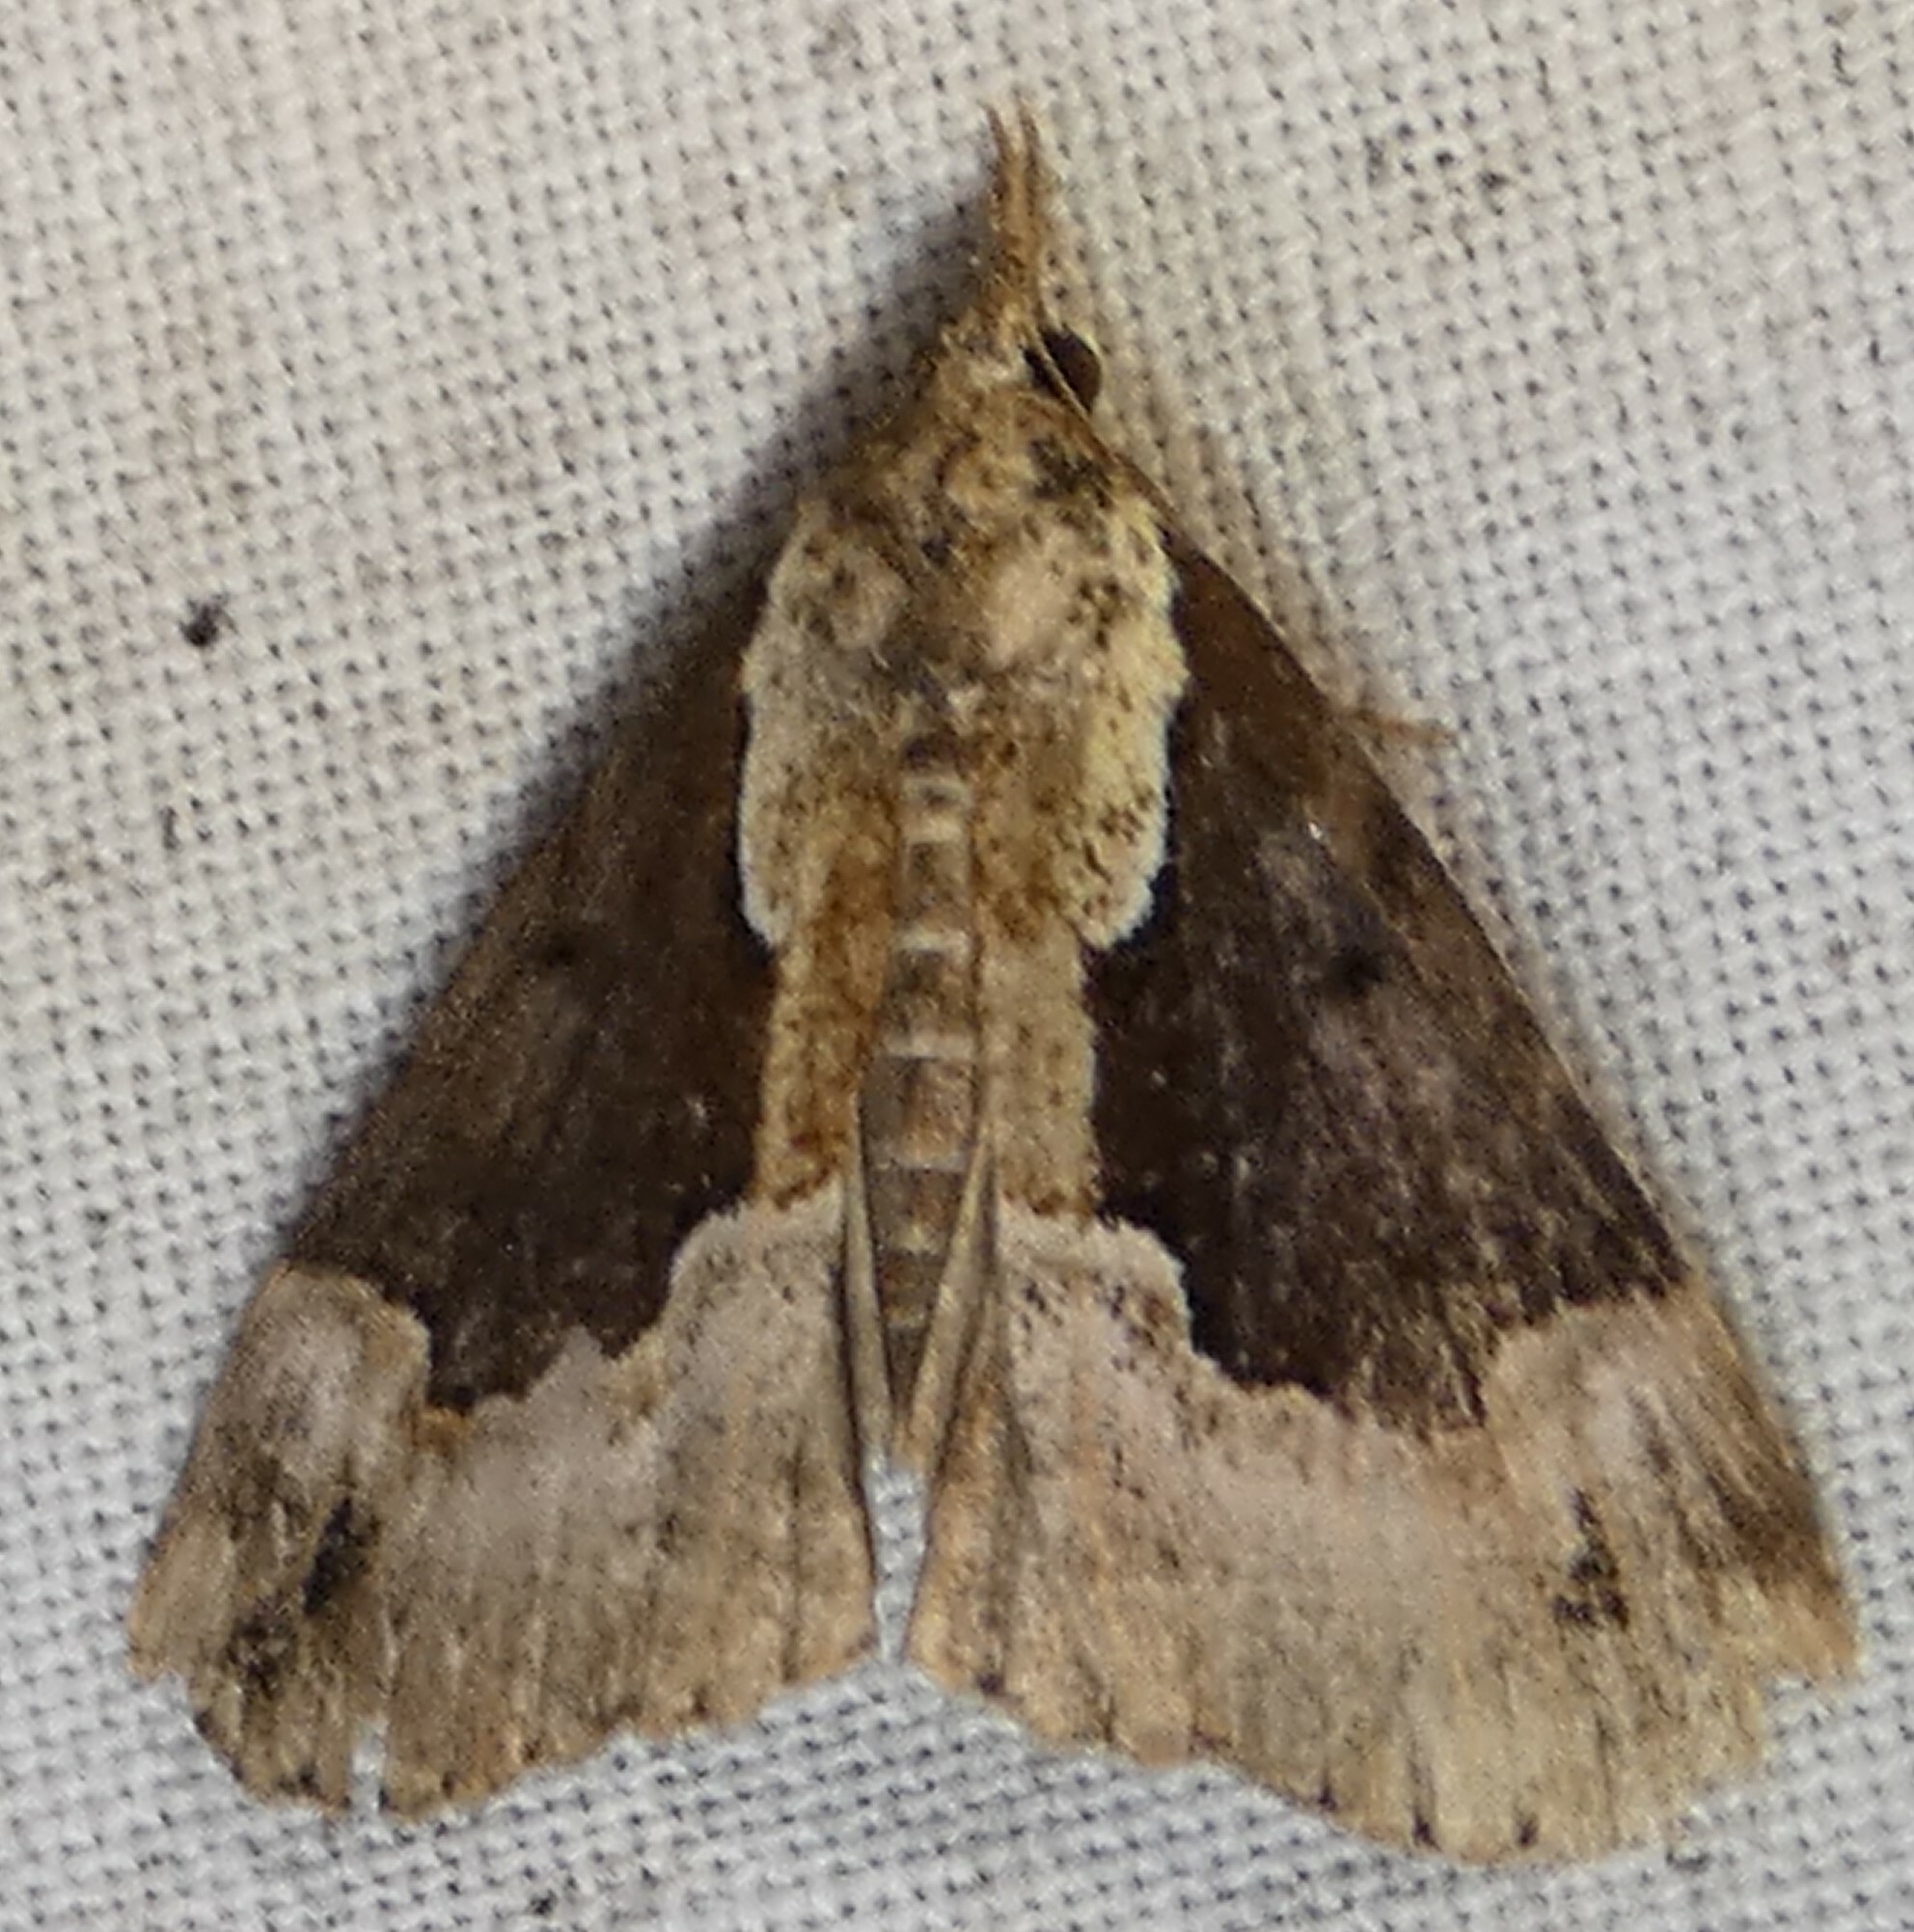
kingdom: Animalia
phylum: Arthropoda
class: Insecta
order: Lepidoptera
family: Erebidae
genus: Hypena
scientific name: Hypena baltimoralis
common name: Baltimore snout
